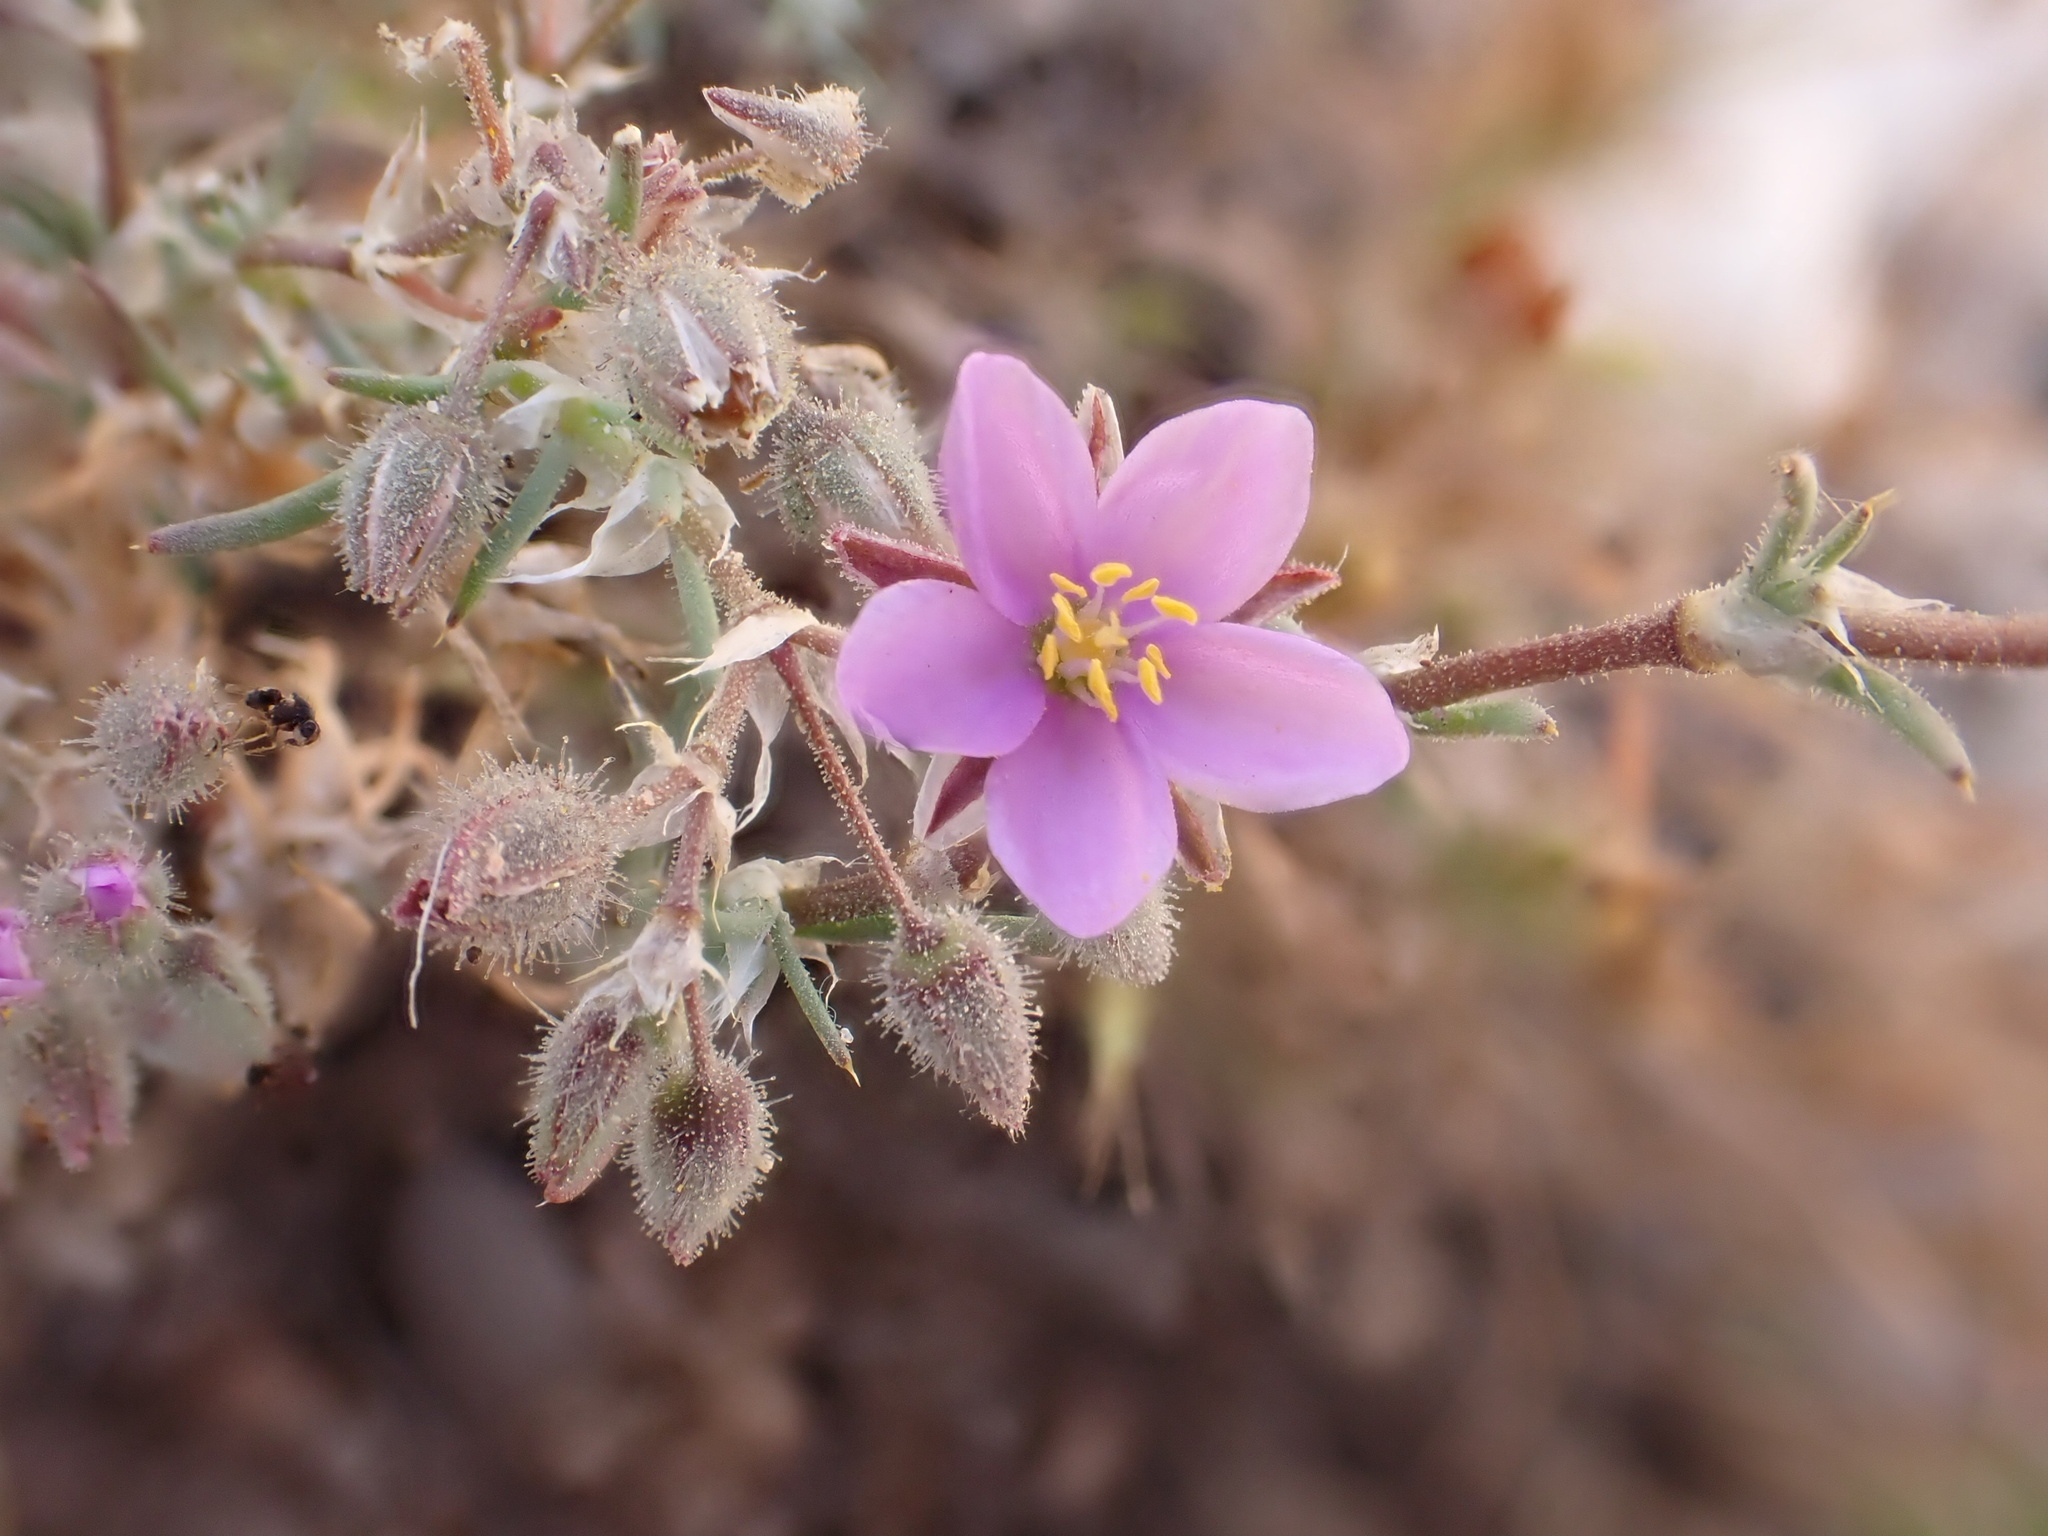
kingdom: Plantae
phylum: Tracheophyta
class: Magnoliopsida
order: Caryophyllales
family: Caryophyllaceae
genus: Spergularia
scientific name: Spergularia fimbriata
